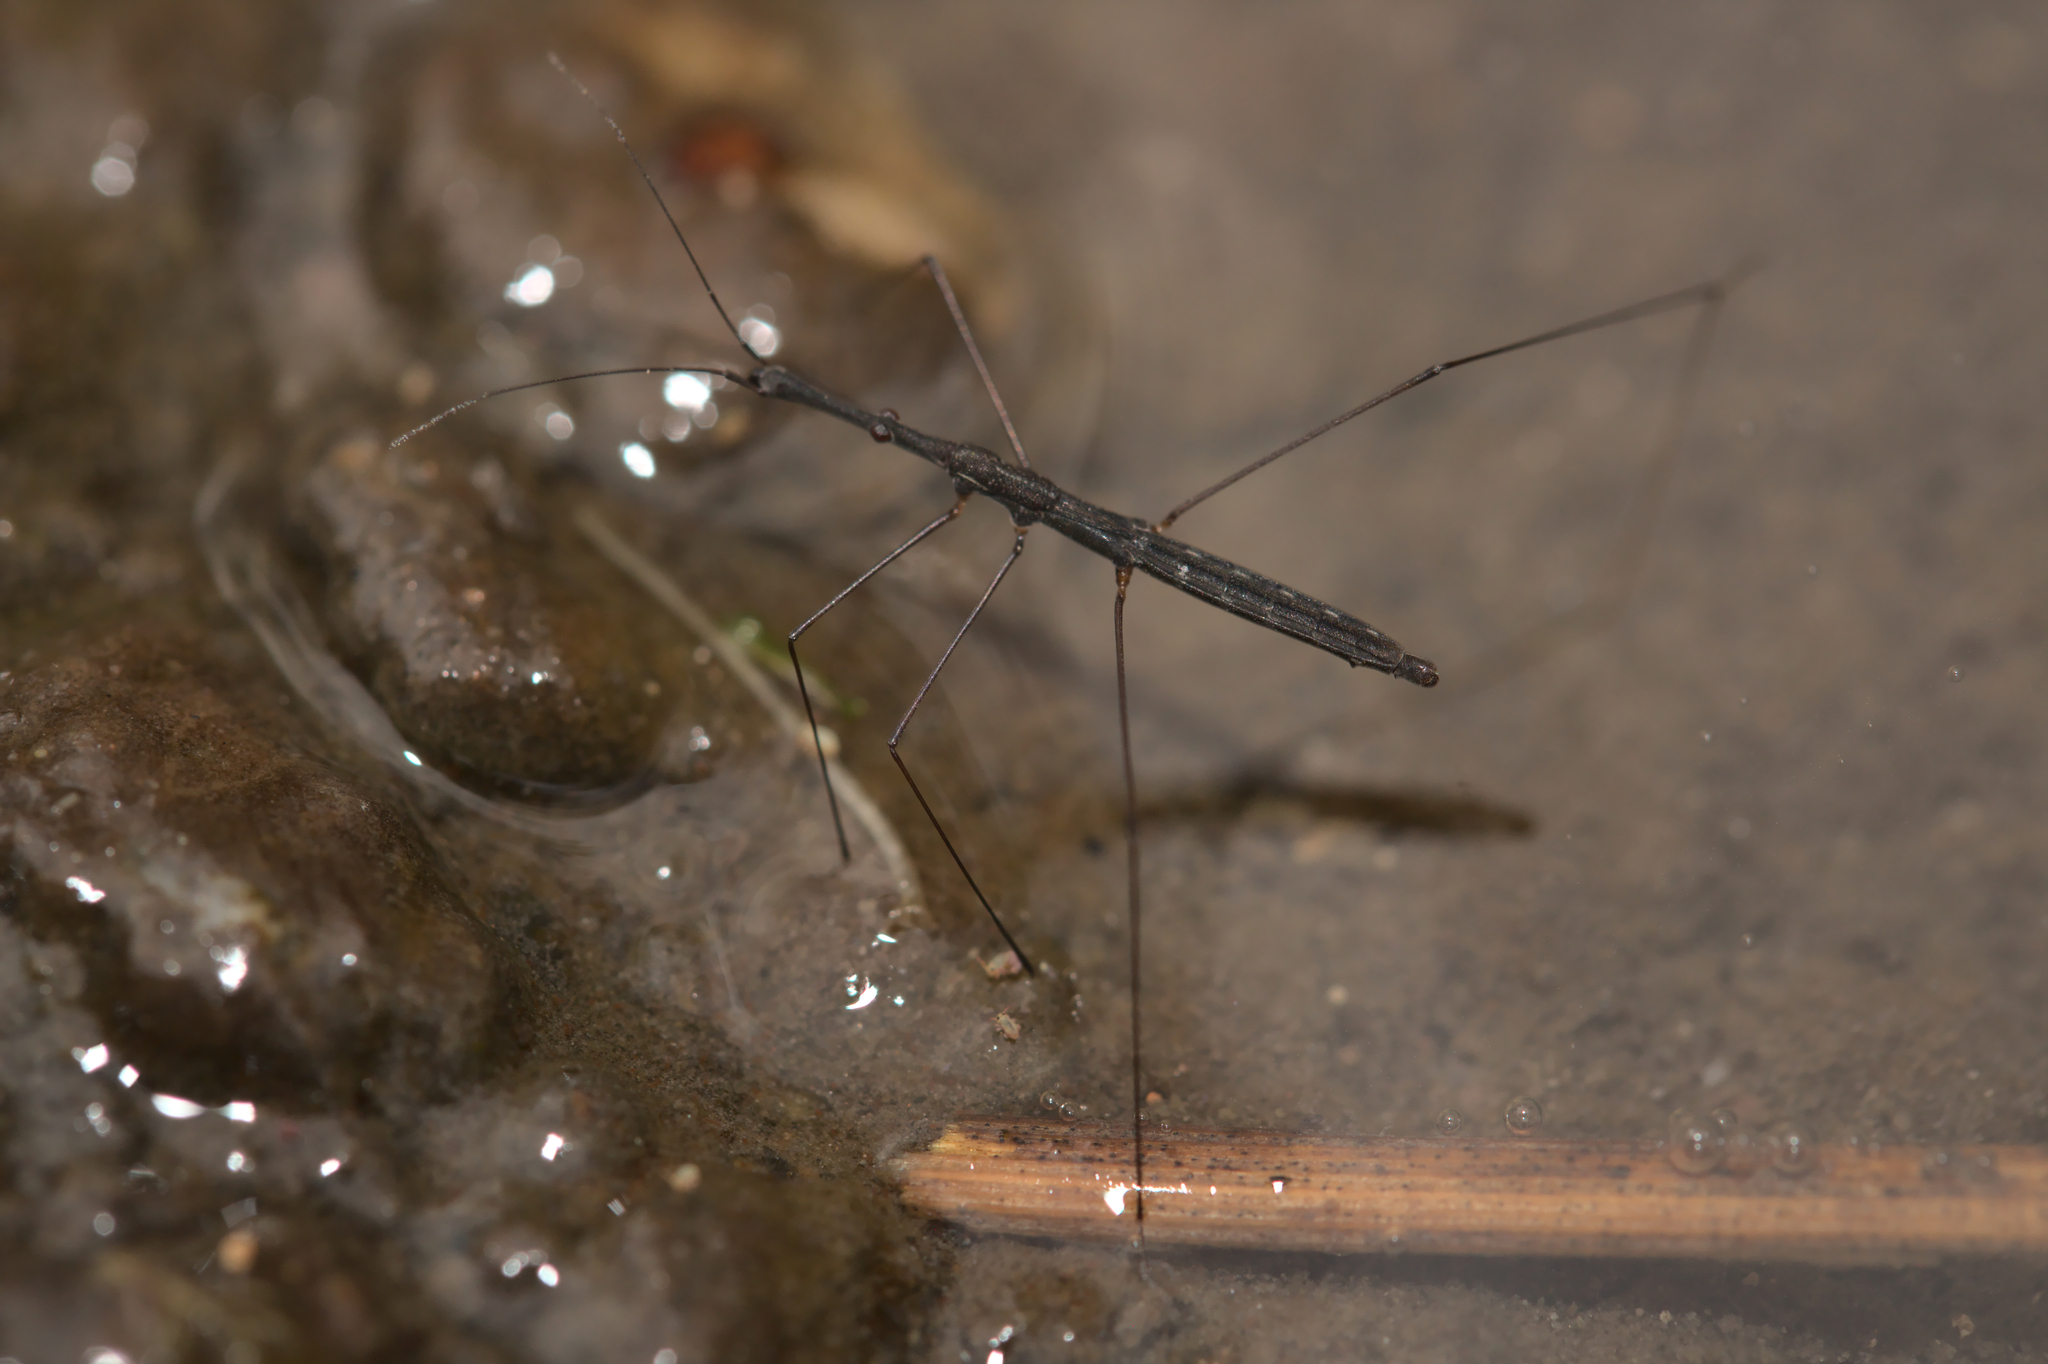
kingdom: Animalia
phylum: Arthropoda
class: Insecta
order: Hemiptera
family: Hydrometridae
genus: Hydrometra
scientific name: Hydrometra stagnorum
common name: Water measurer
